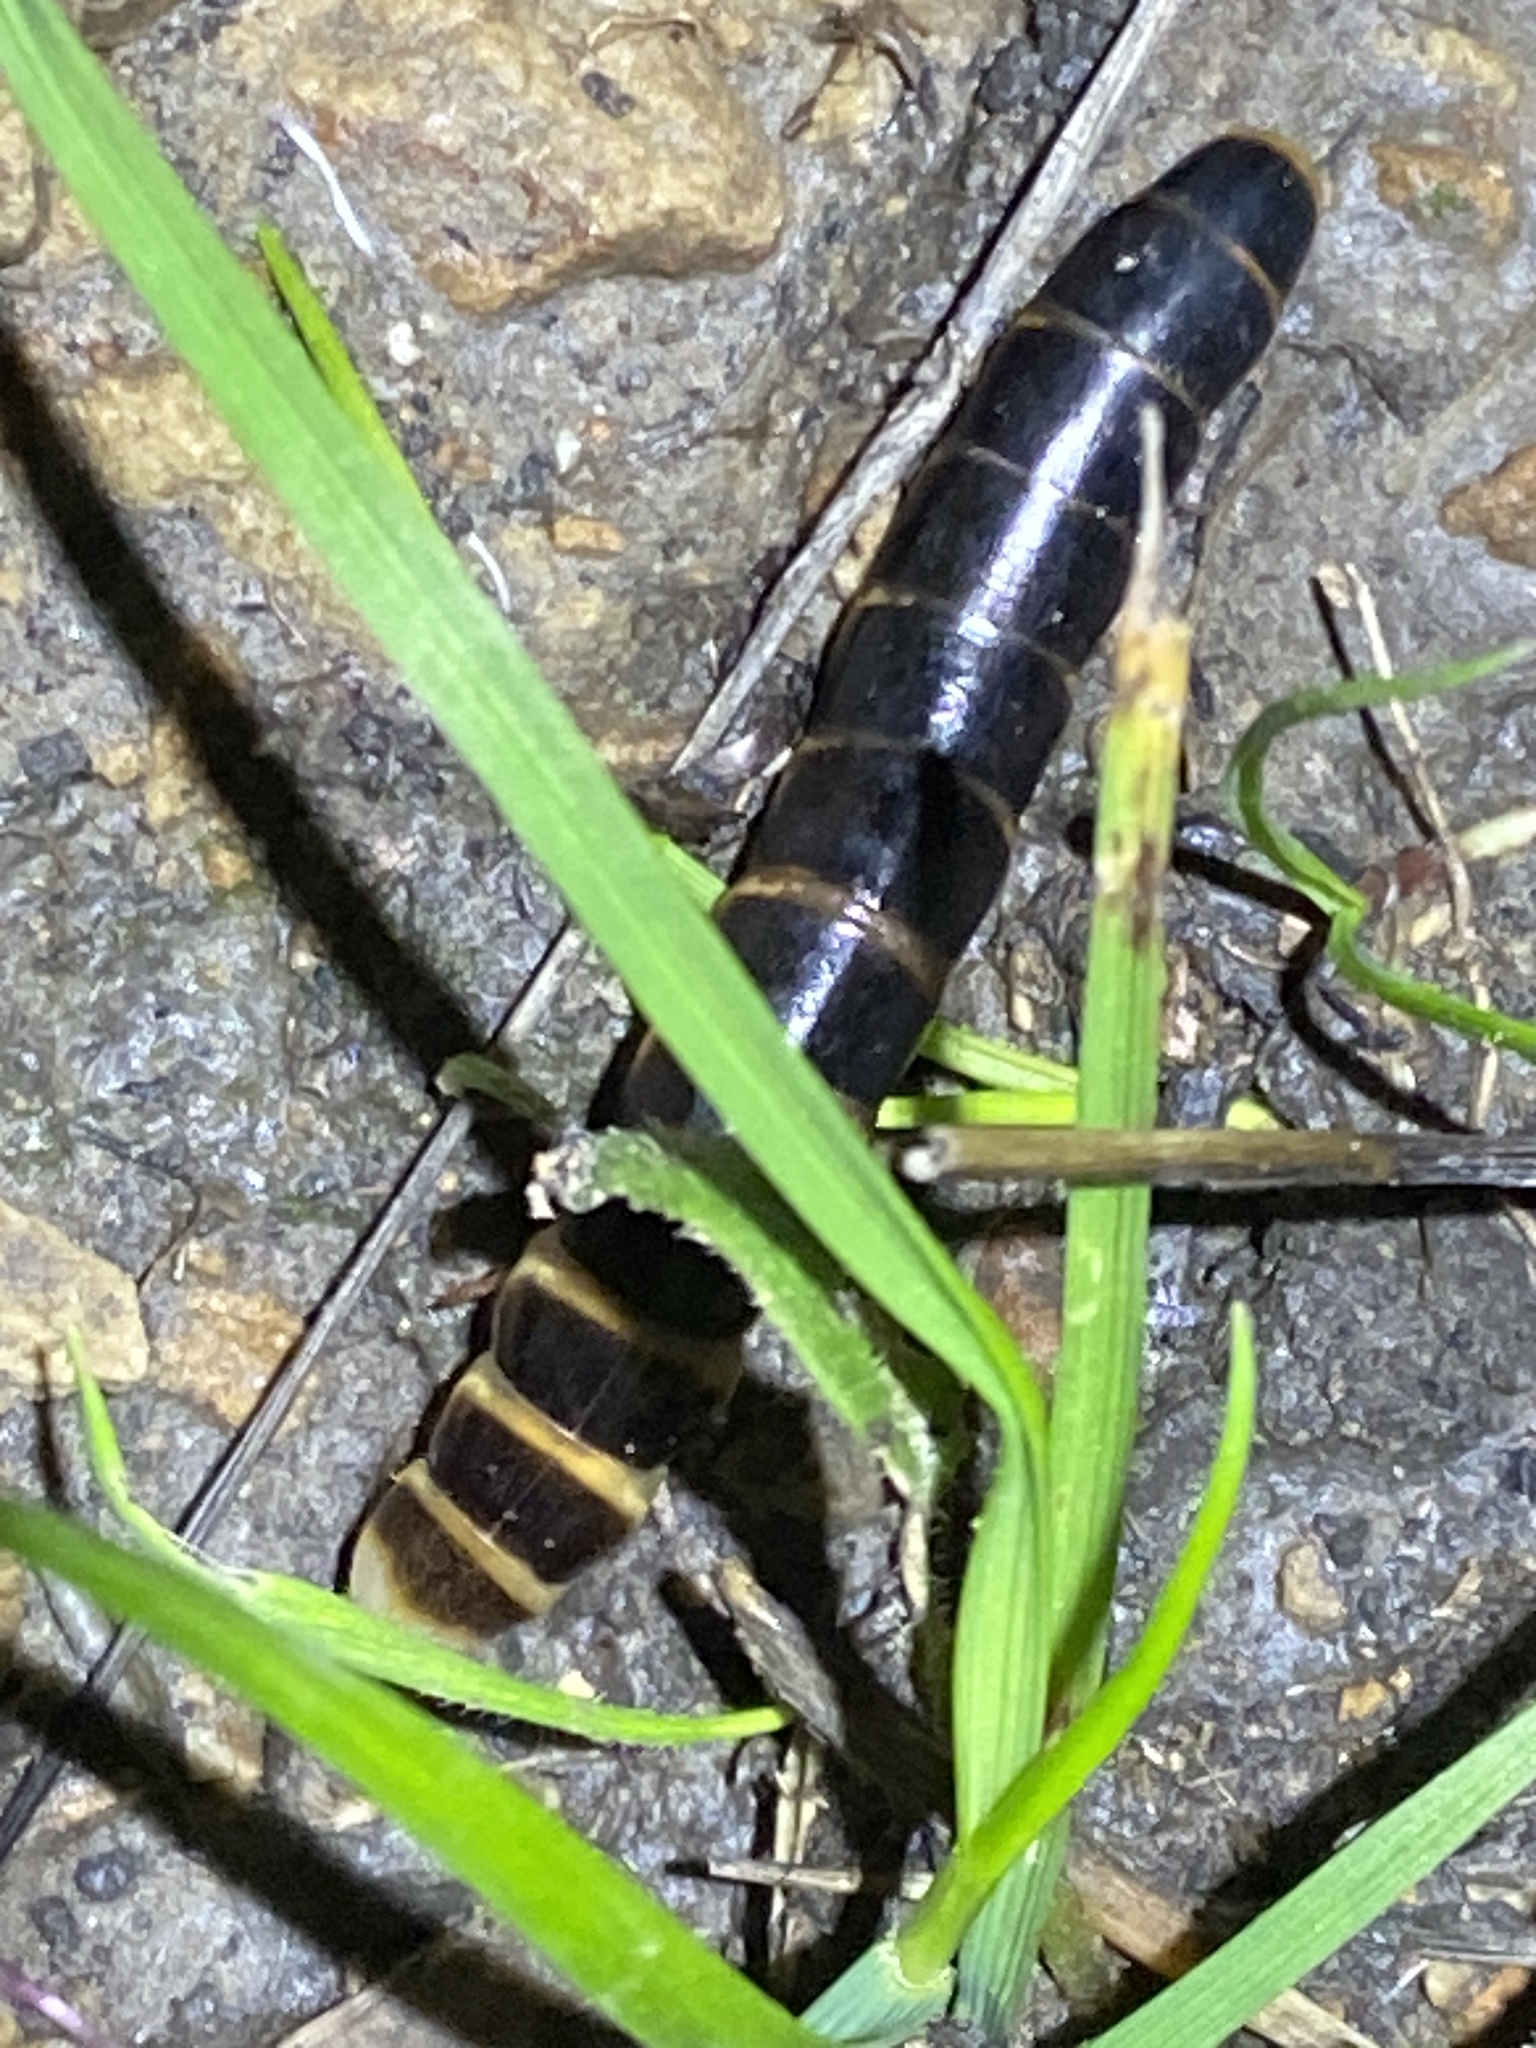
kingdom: Animalia
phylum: Arthropoda
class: Insecta
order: Coleoptera
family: Phengodidae
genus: Zarhipis
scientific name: Zarhipis integripennis
